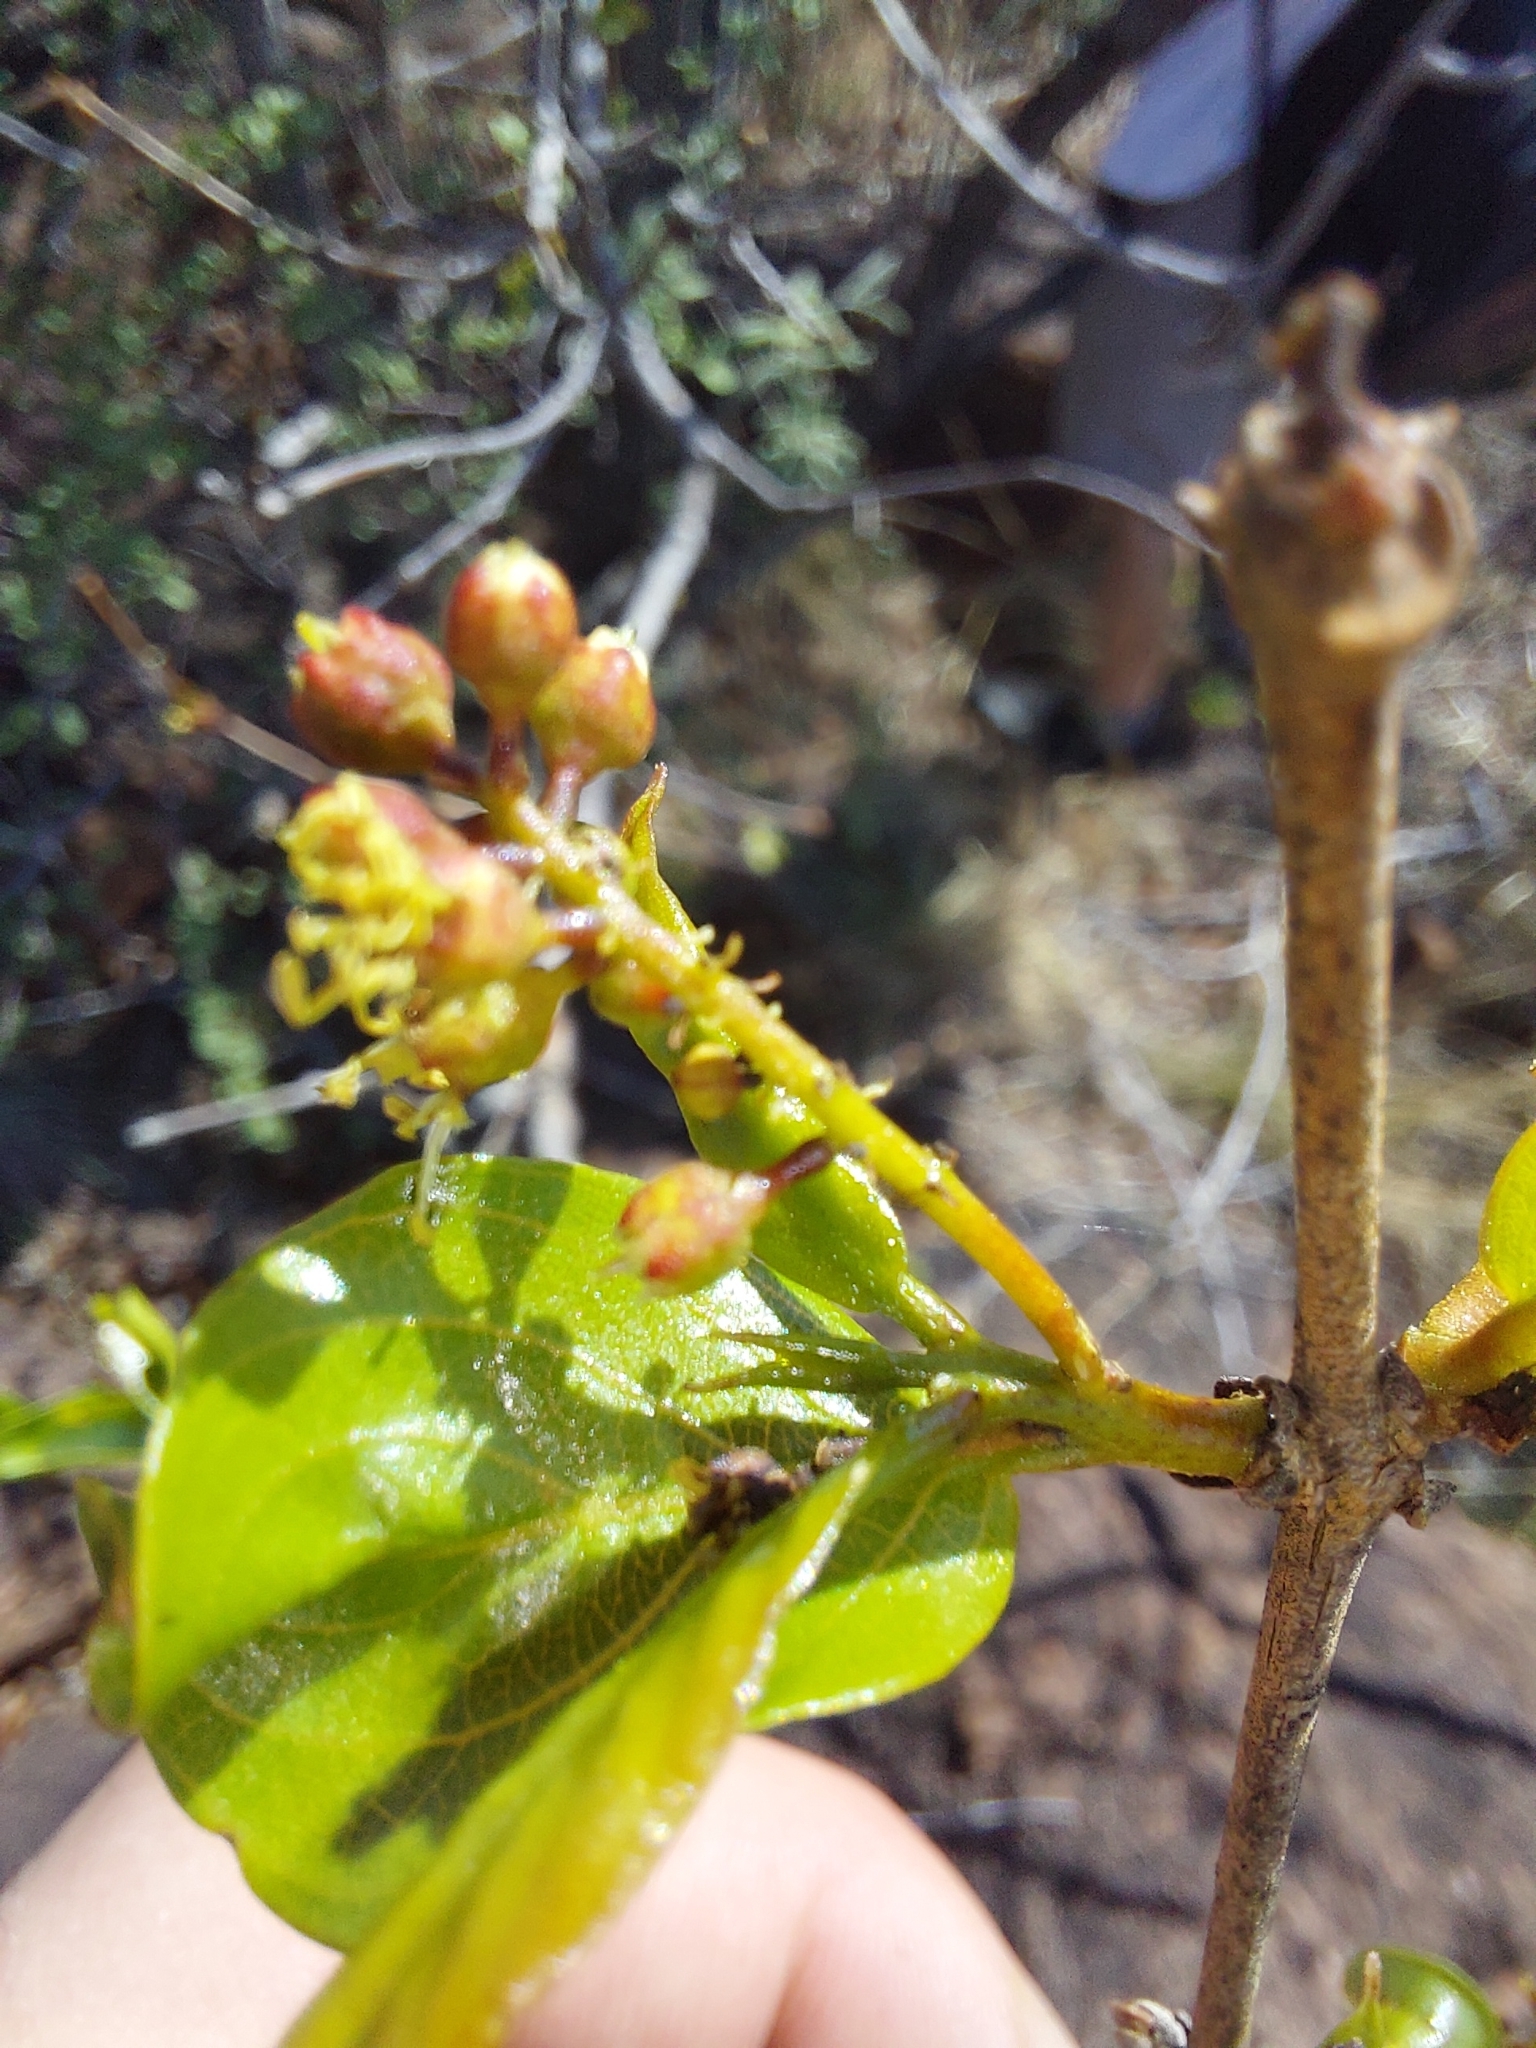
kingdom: Plantae
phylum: Tracheophyta
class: Magnoliopsida
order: Myrtales
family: Combretaceae
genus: Combretum
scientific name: Combretum apiculatum
